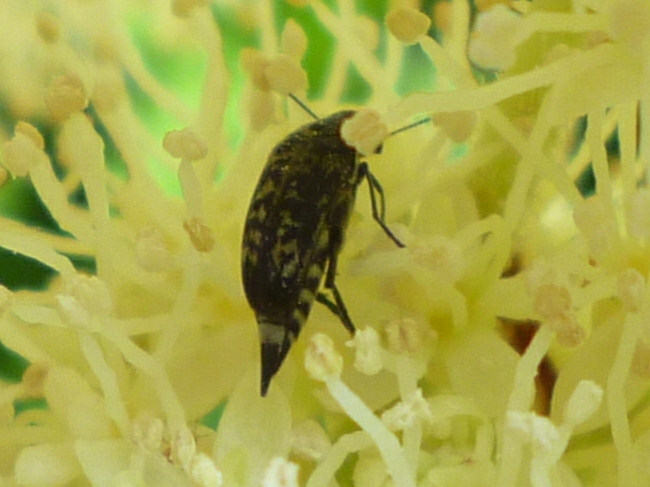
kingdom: Animalia
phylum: Arthropoda
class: Insecta
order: Coleoptera
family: Mordellidae
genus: Mordella
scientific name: Mordella marginata
